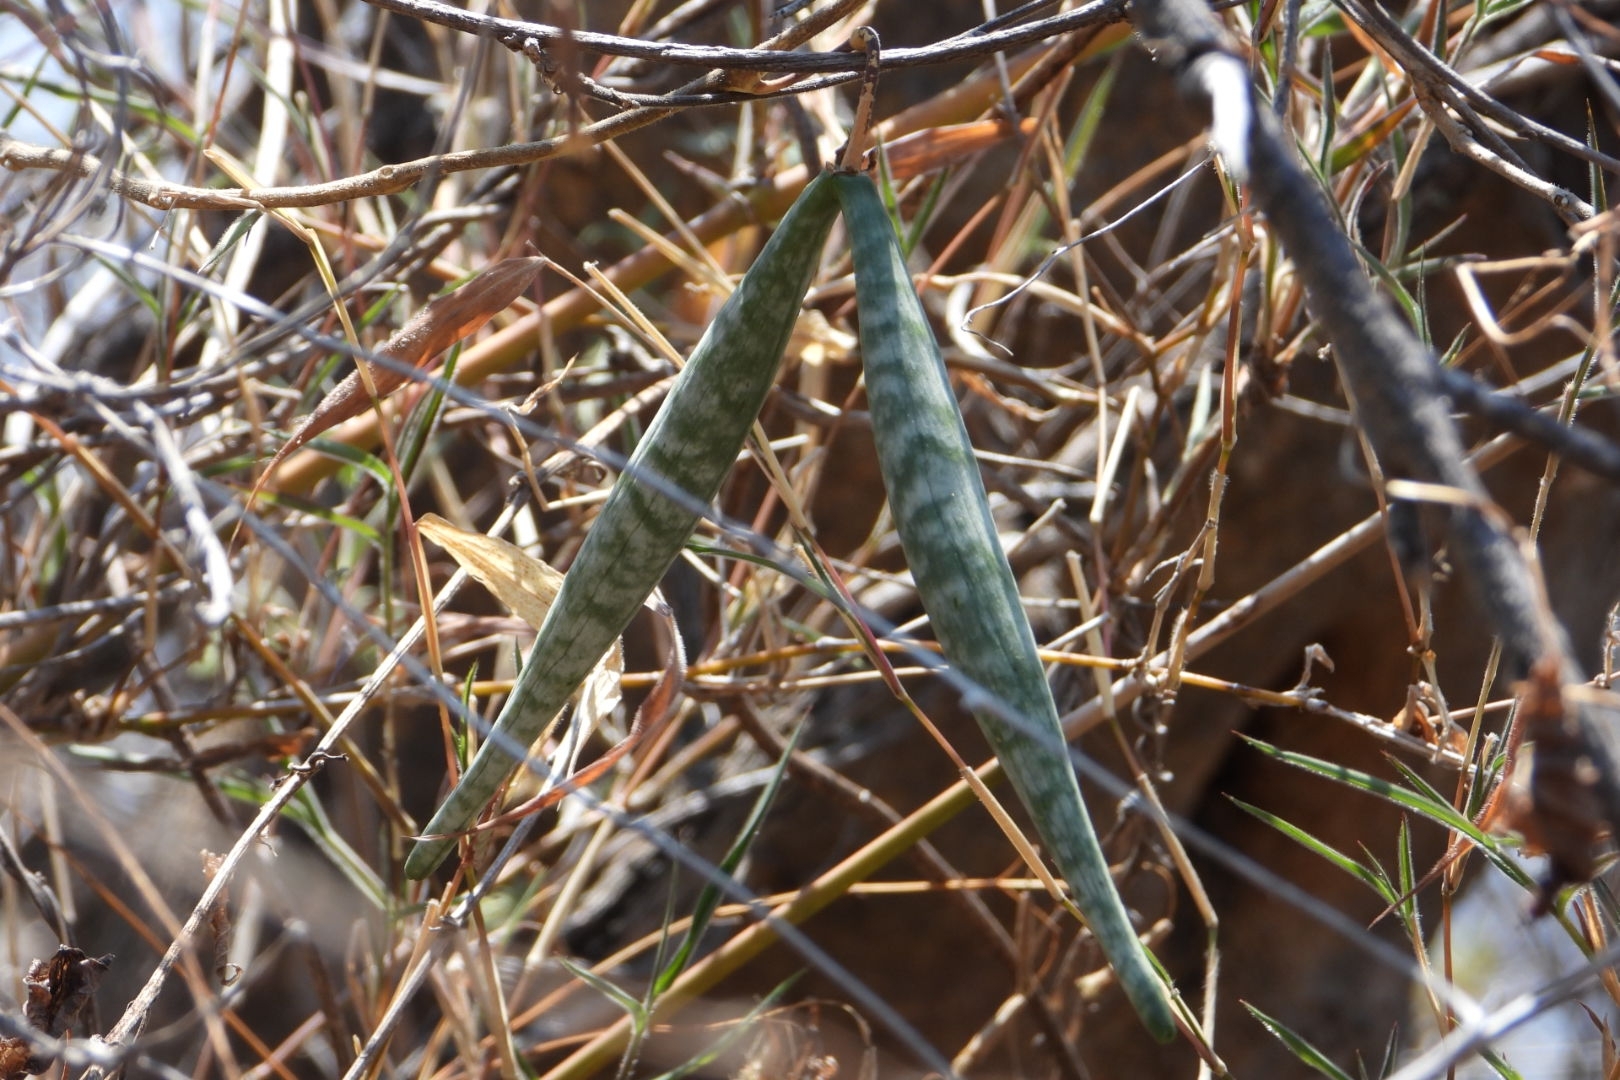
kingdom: Plantae
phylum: Tracheophyta
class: Magnoliopsida
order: Gentianales
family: Apocynaceae
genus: Polystemma
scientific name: Polystemma guatemalense
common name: Arborescente rattan
